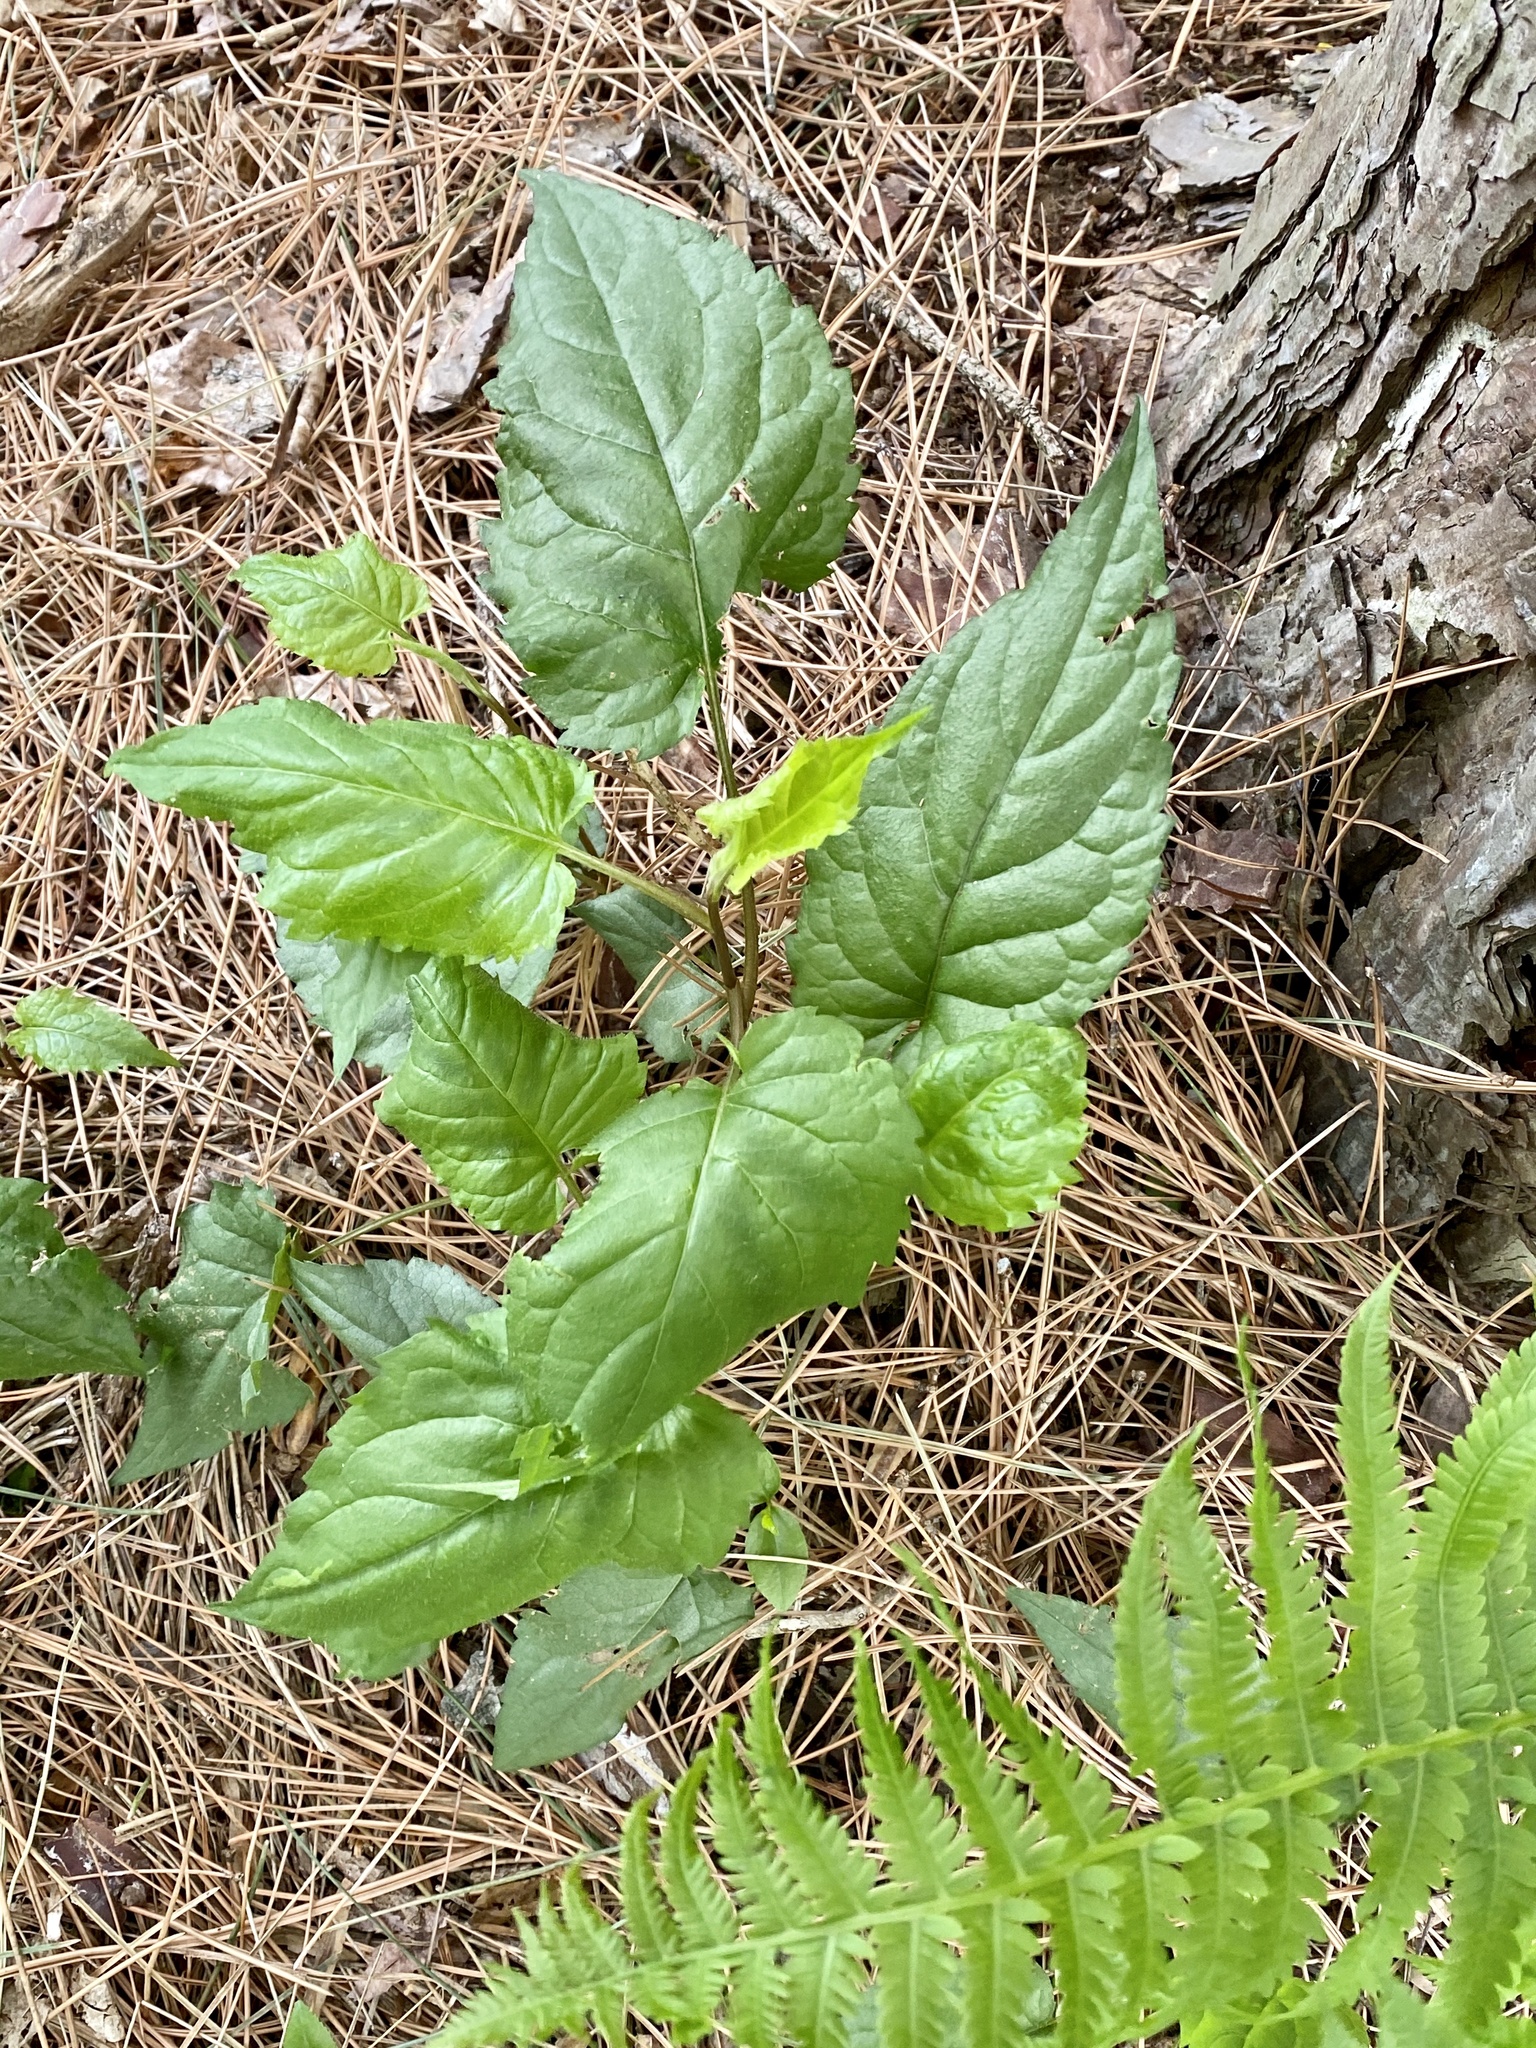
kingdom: Plantae
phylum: Tracheophyta
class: Magnoliopsida
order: Asterales
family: Asteraceae
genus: Eurybia
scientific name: Eurybia divaricata
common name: White wood aster
